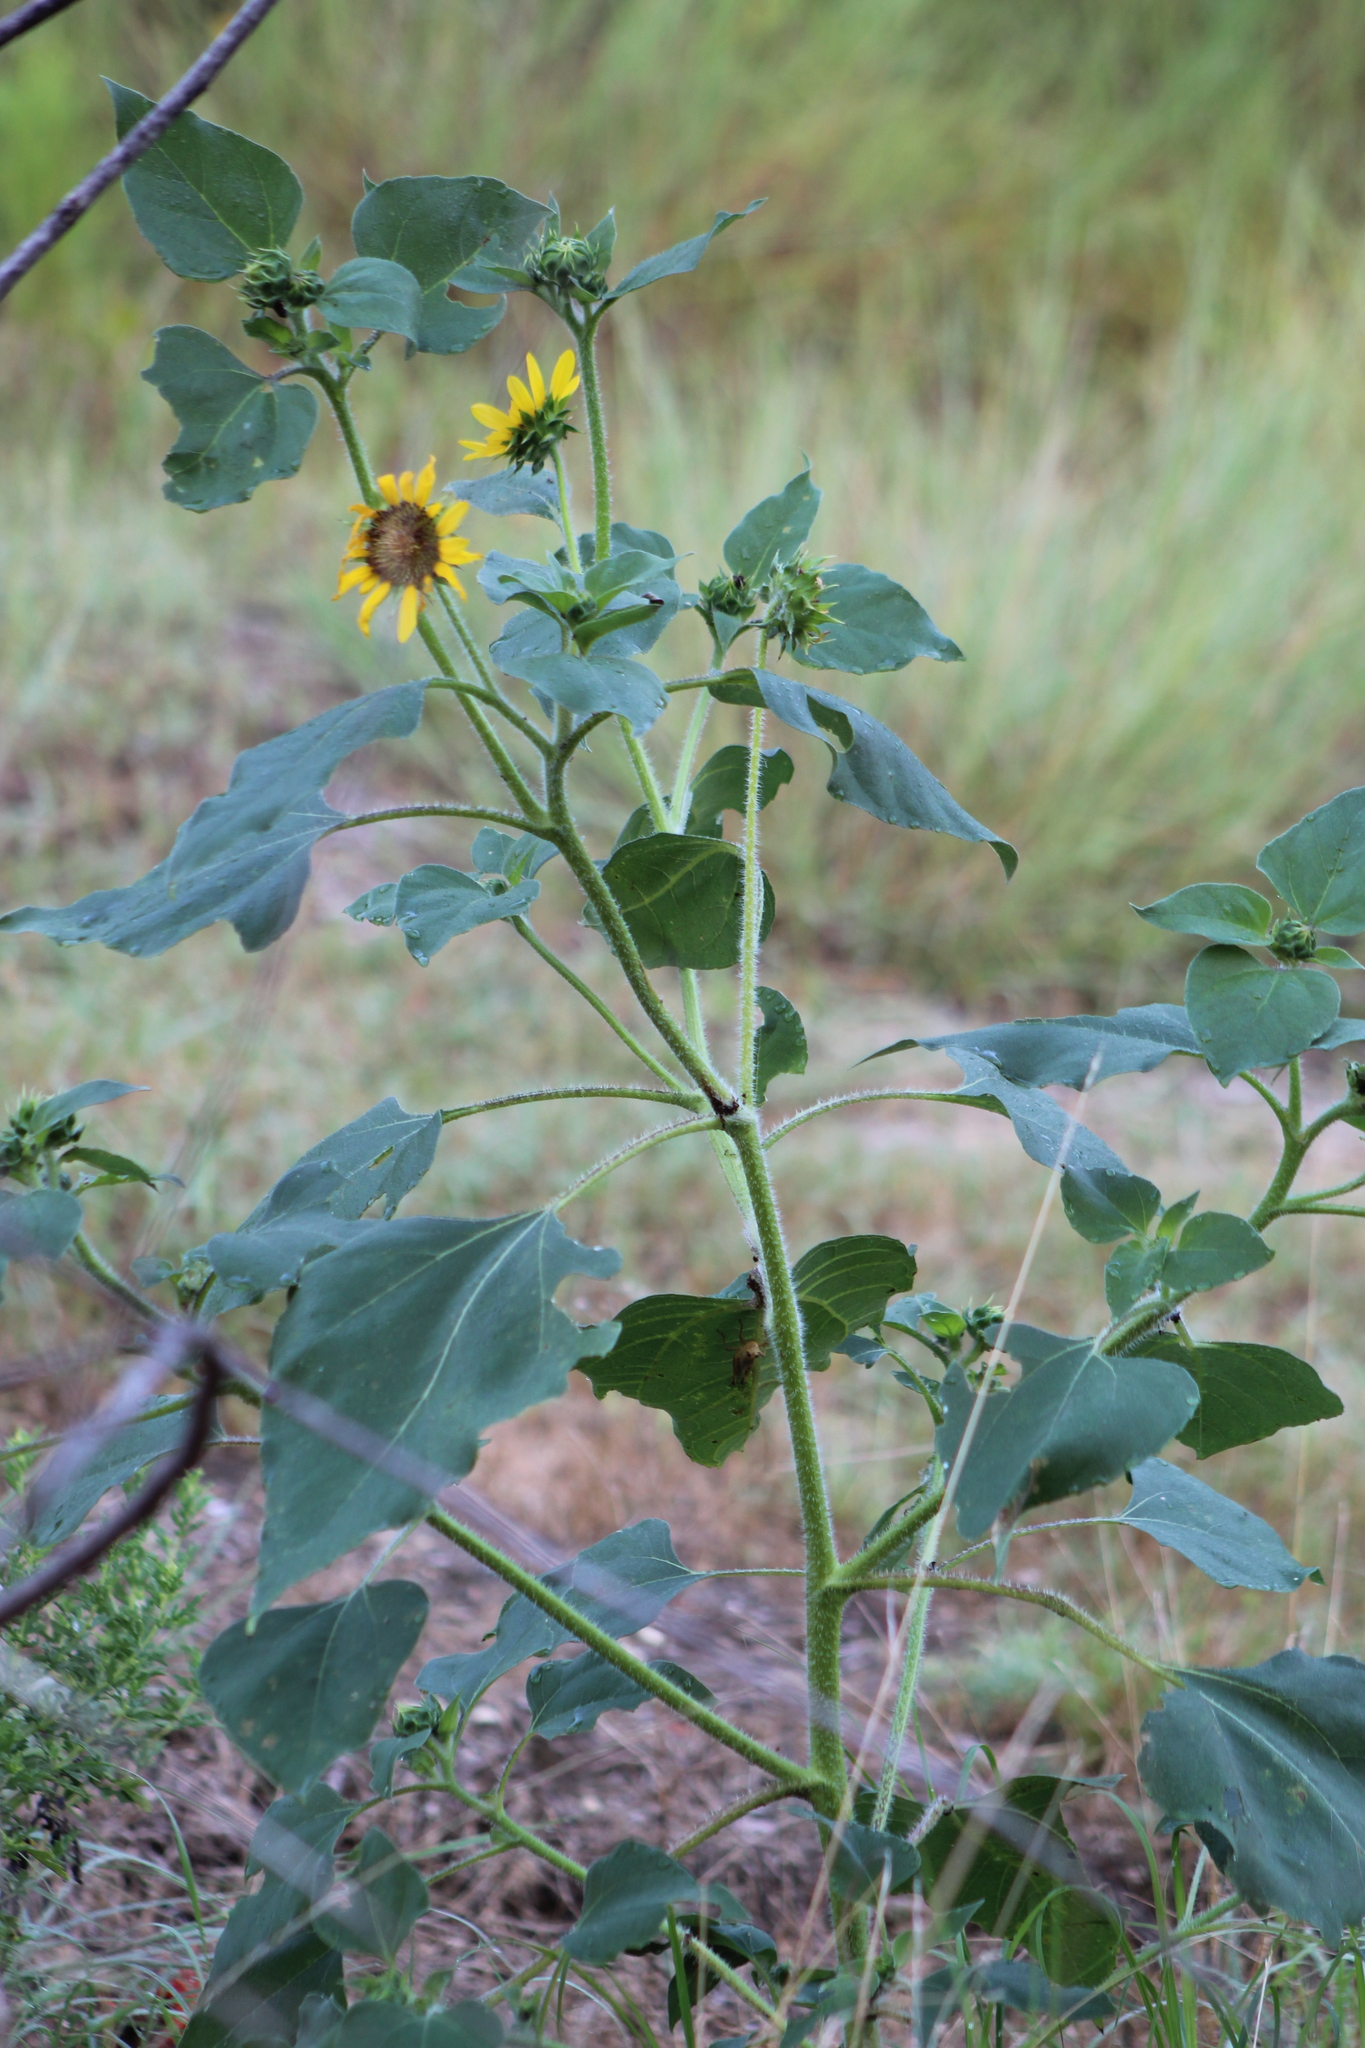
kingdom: Plantae
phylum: Tracheophyta
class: Magnoliopsida
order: Asterales
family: Asteraceae
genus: Helianthus
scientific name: Helianthus annuus
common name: Sunflower
